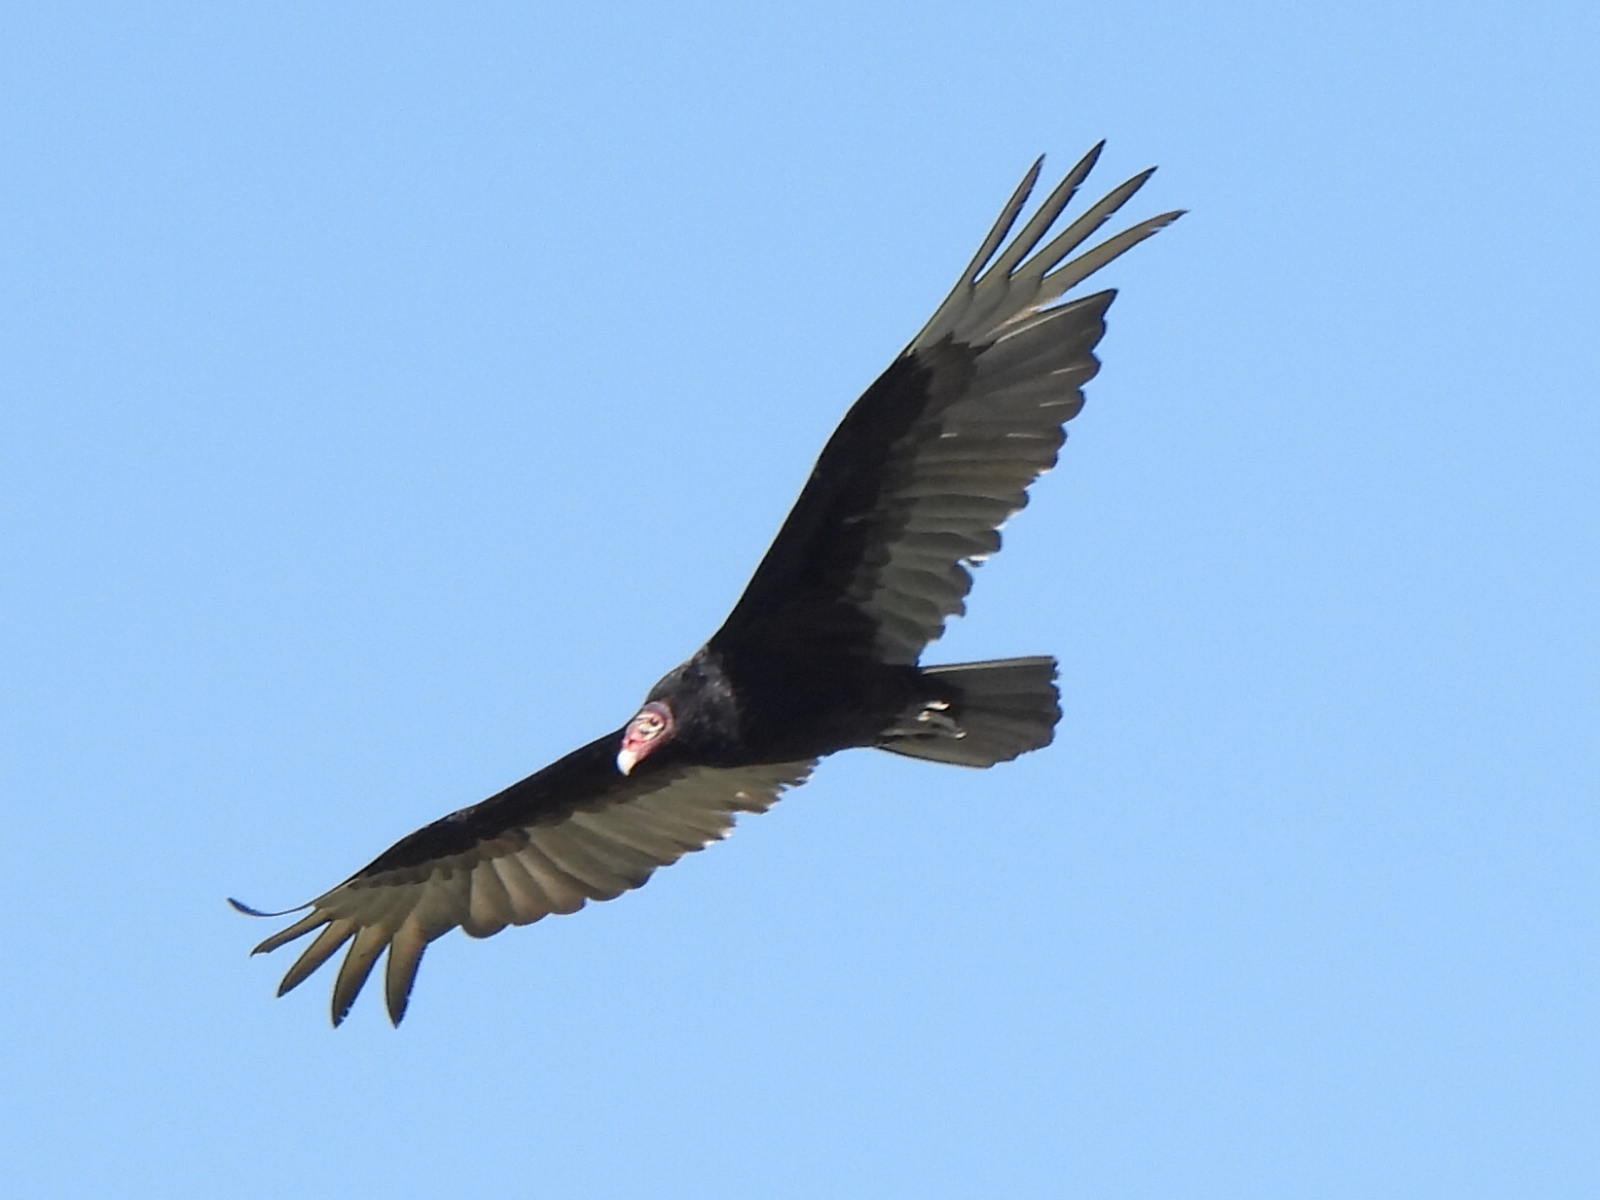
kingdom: Animalia
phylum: Chordata
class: Aves
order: Accipitriformes
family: Cathartidae
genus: Cathartes
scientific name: Cathartes aura
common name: Turkey vulture
